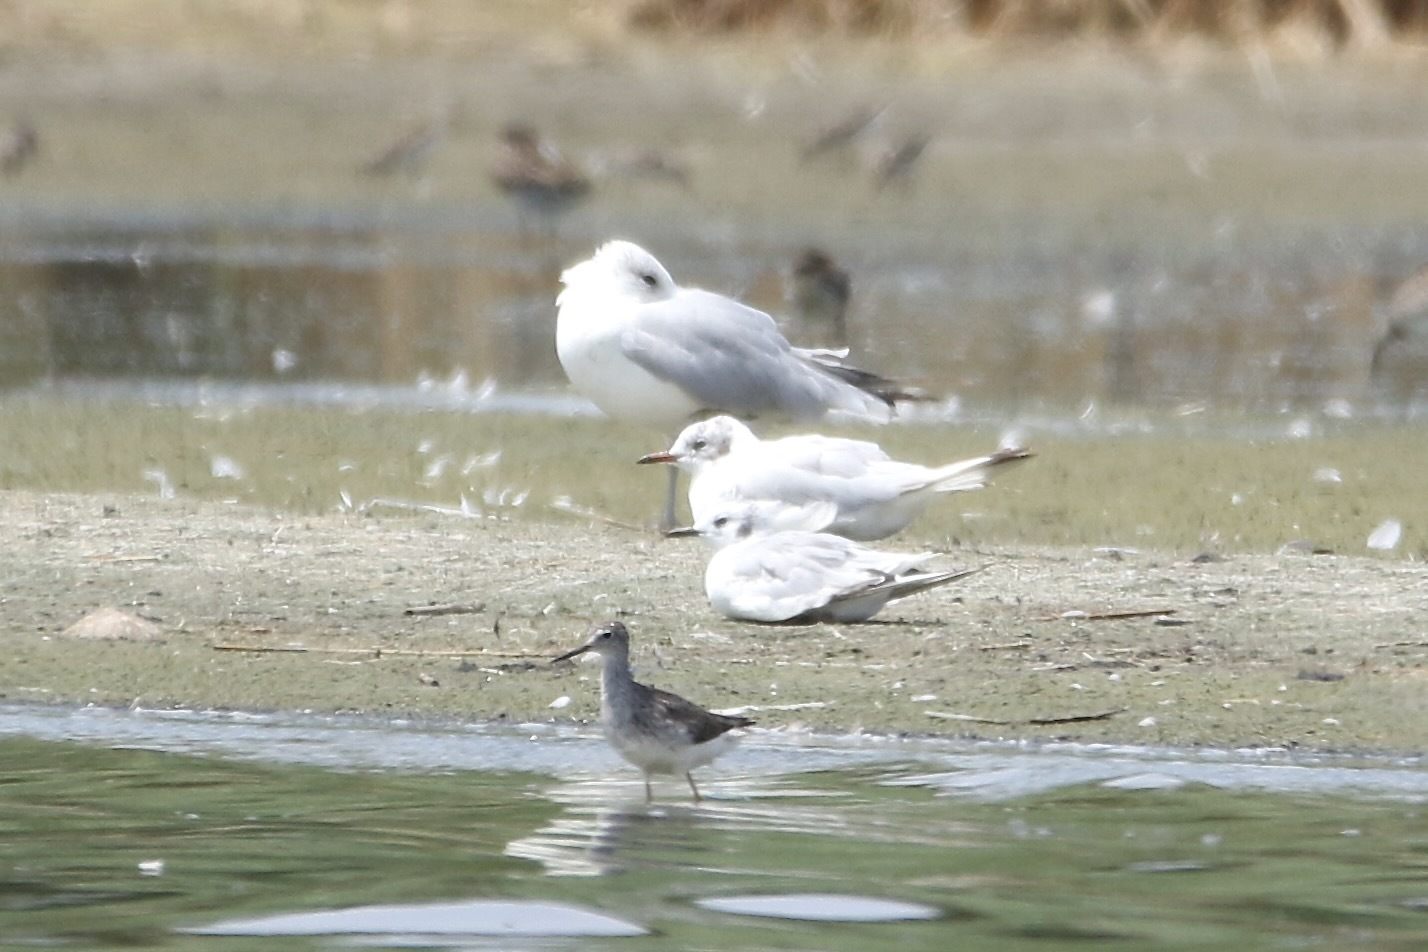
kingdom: Animalia
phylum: Chordata
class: Aves
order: Charadriiformes
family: Laridae
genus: Chroicocephalus
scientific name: Chroicocephalus ridibundus
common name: Black-headed gull
